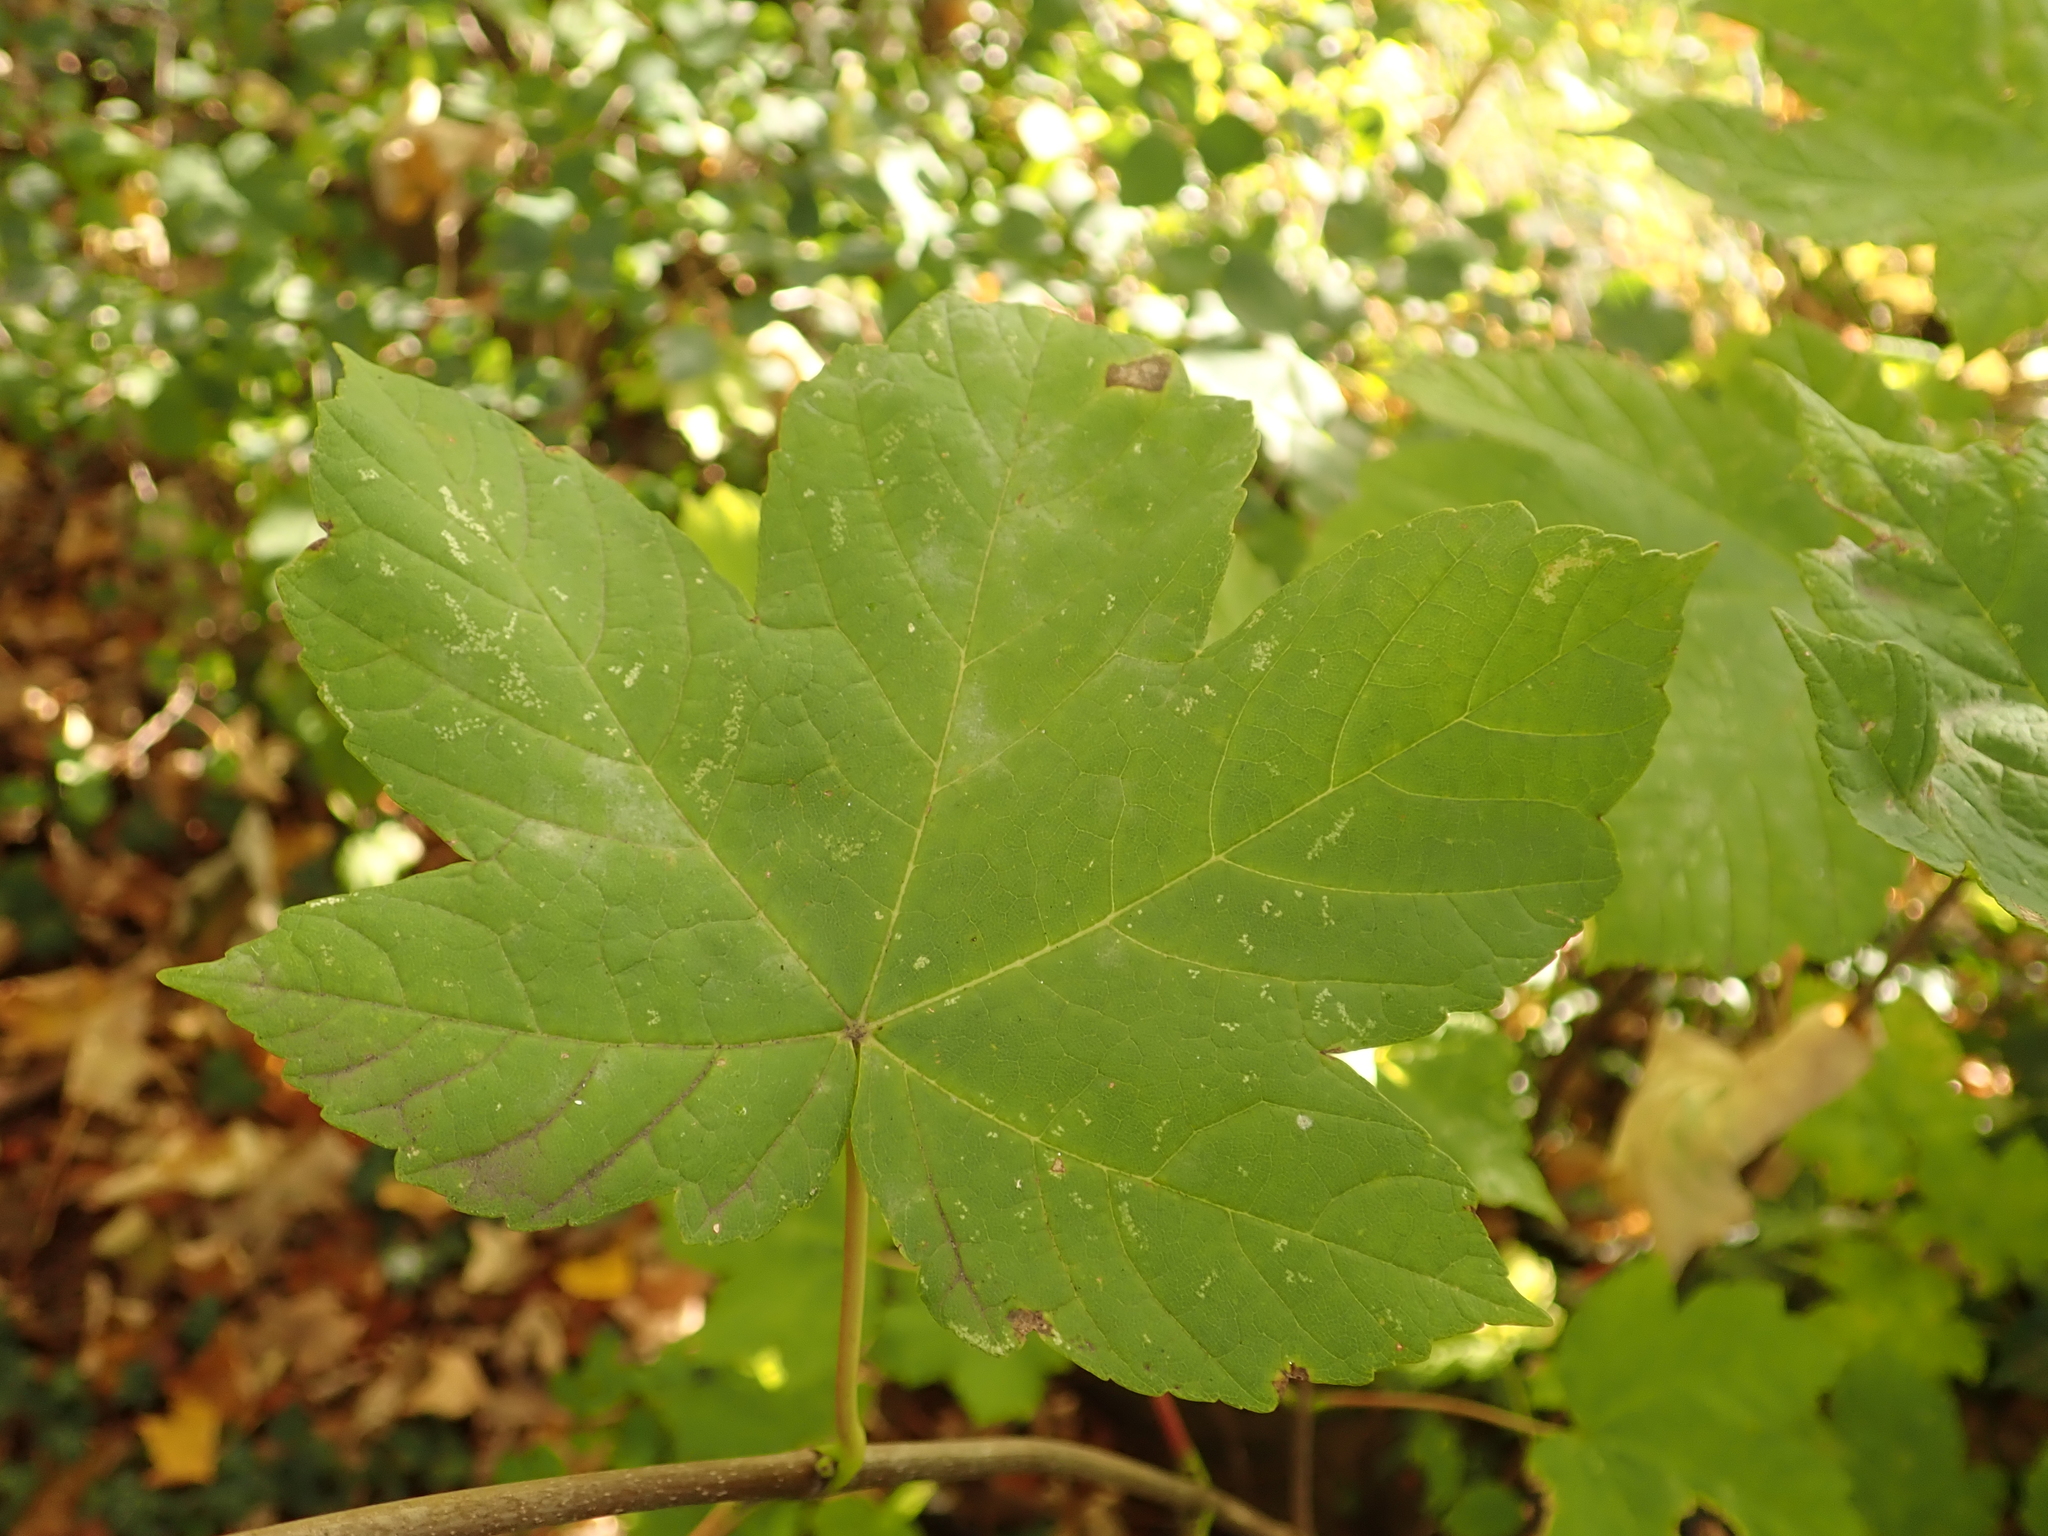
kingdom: Plantae
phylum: Tracheophyta
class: Magnoliopsida
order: Sapindales
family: Sapindaceae
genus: Acer
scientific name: Acer pseudoplatanus
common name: Sycamore
